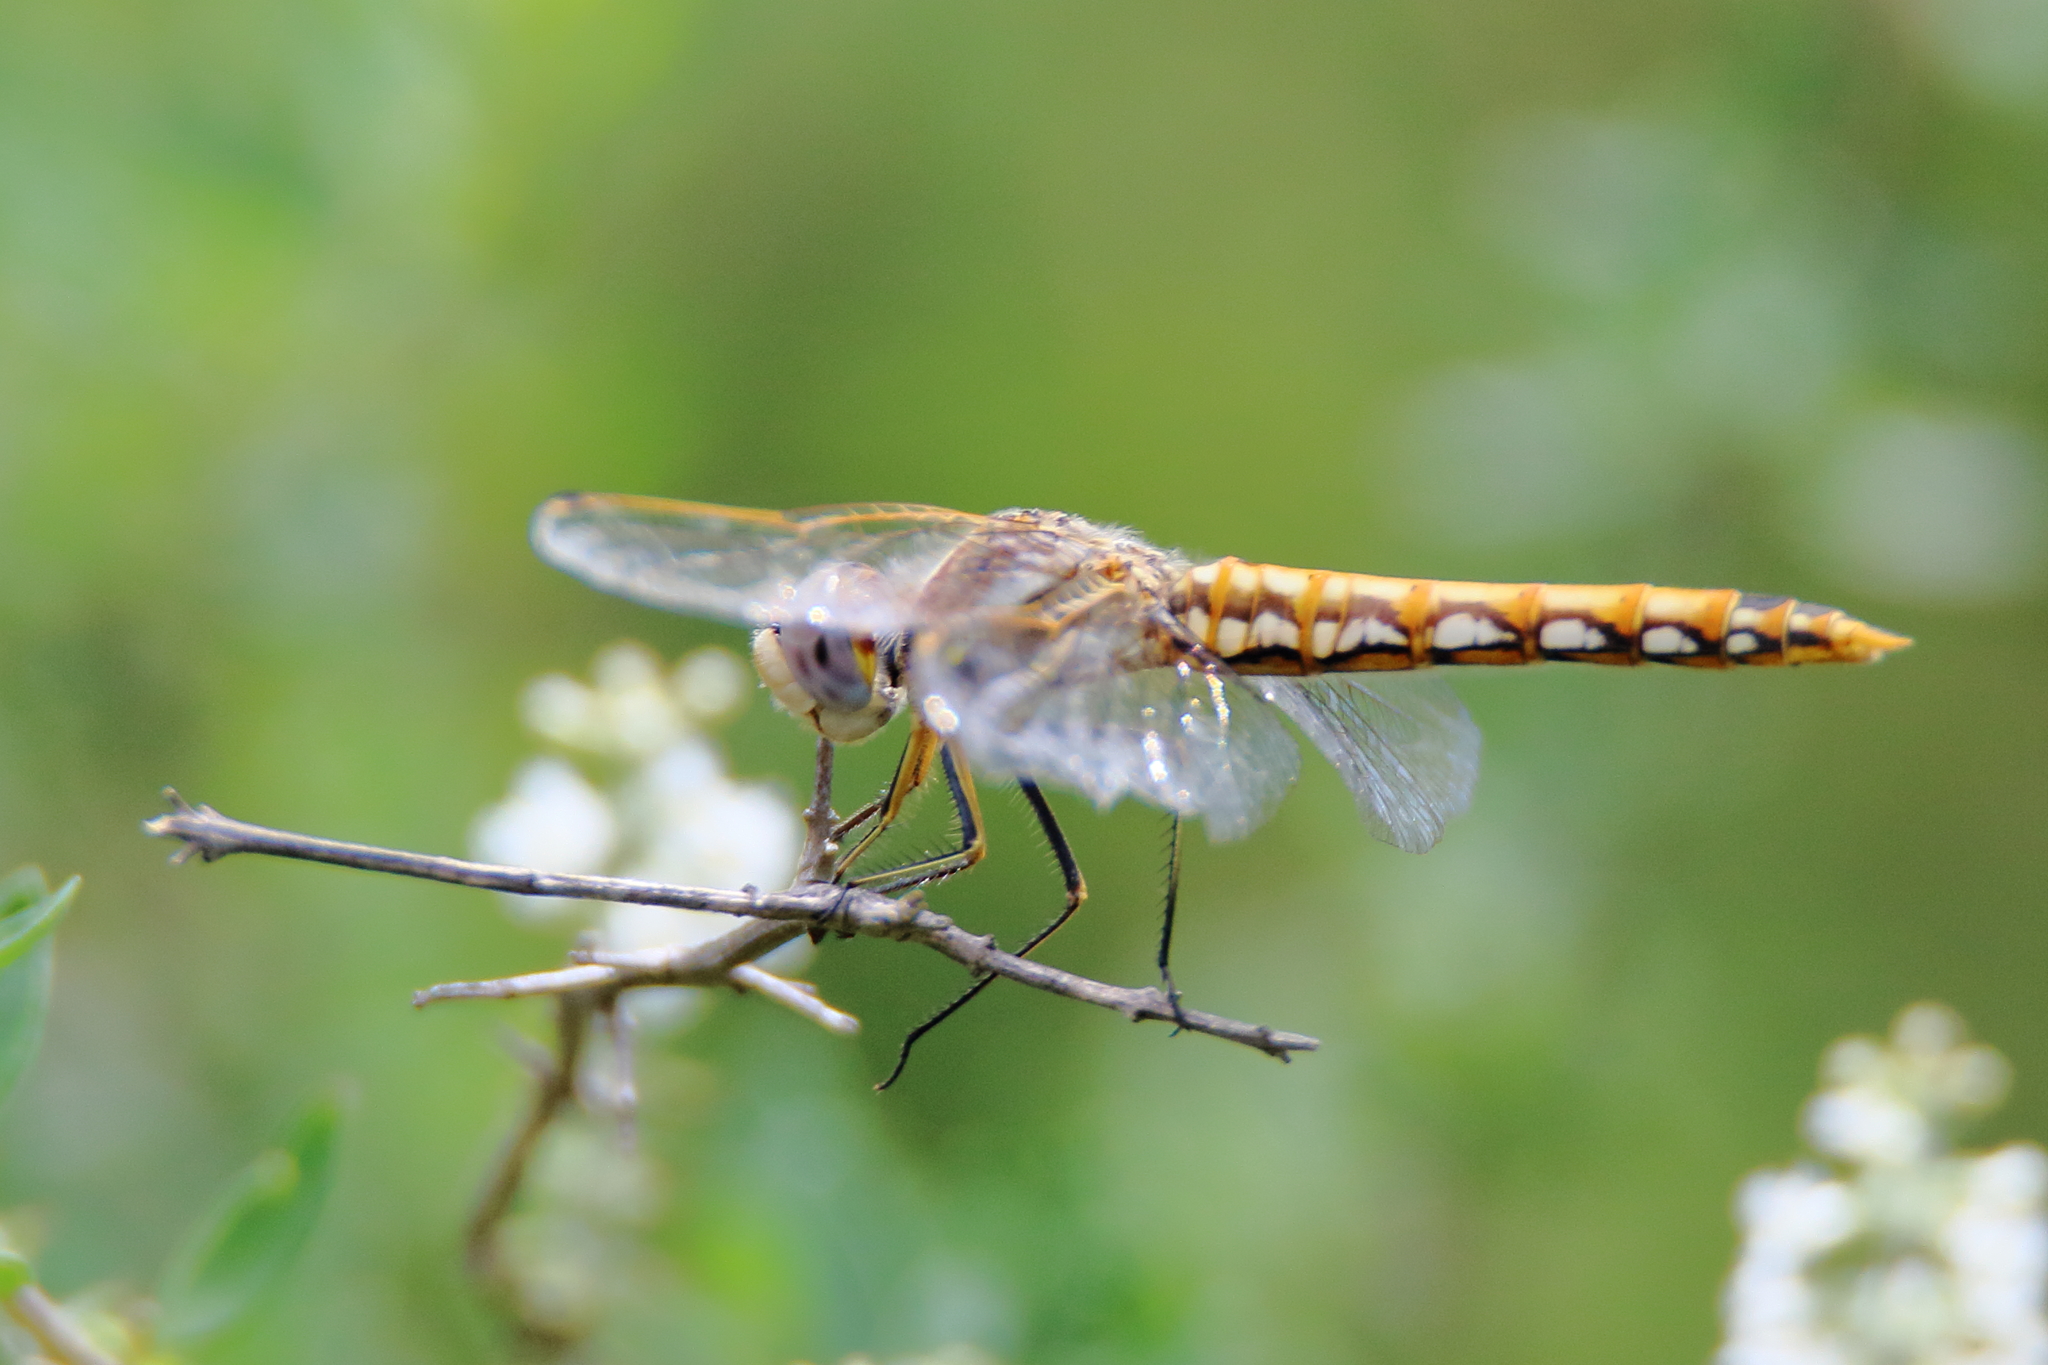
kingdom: Animalia
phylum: Arthropoda
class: Insecta
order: Odonata
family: Libellulidae
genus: Sympetrum
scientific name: Sympetrum corruptum
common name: Variegated meadowhawk
